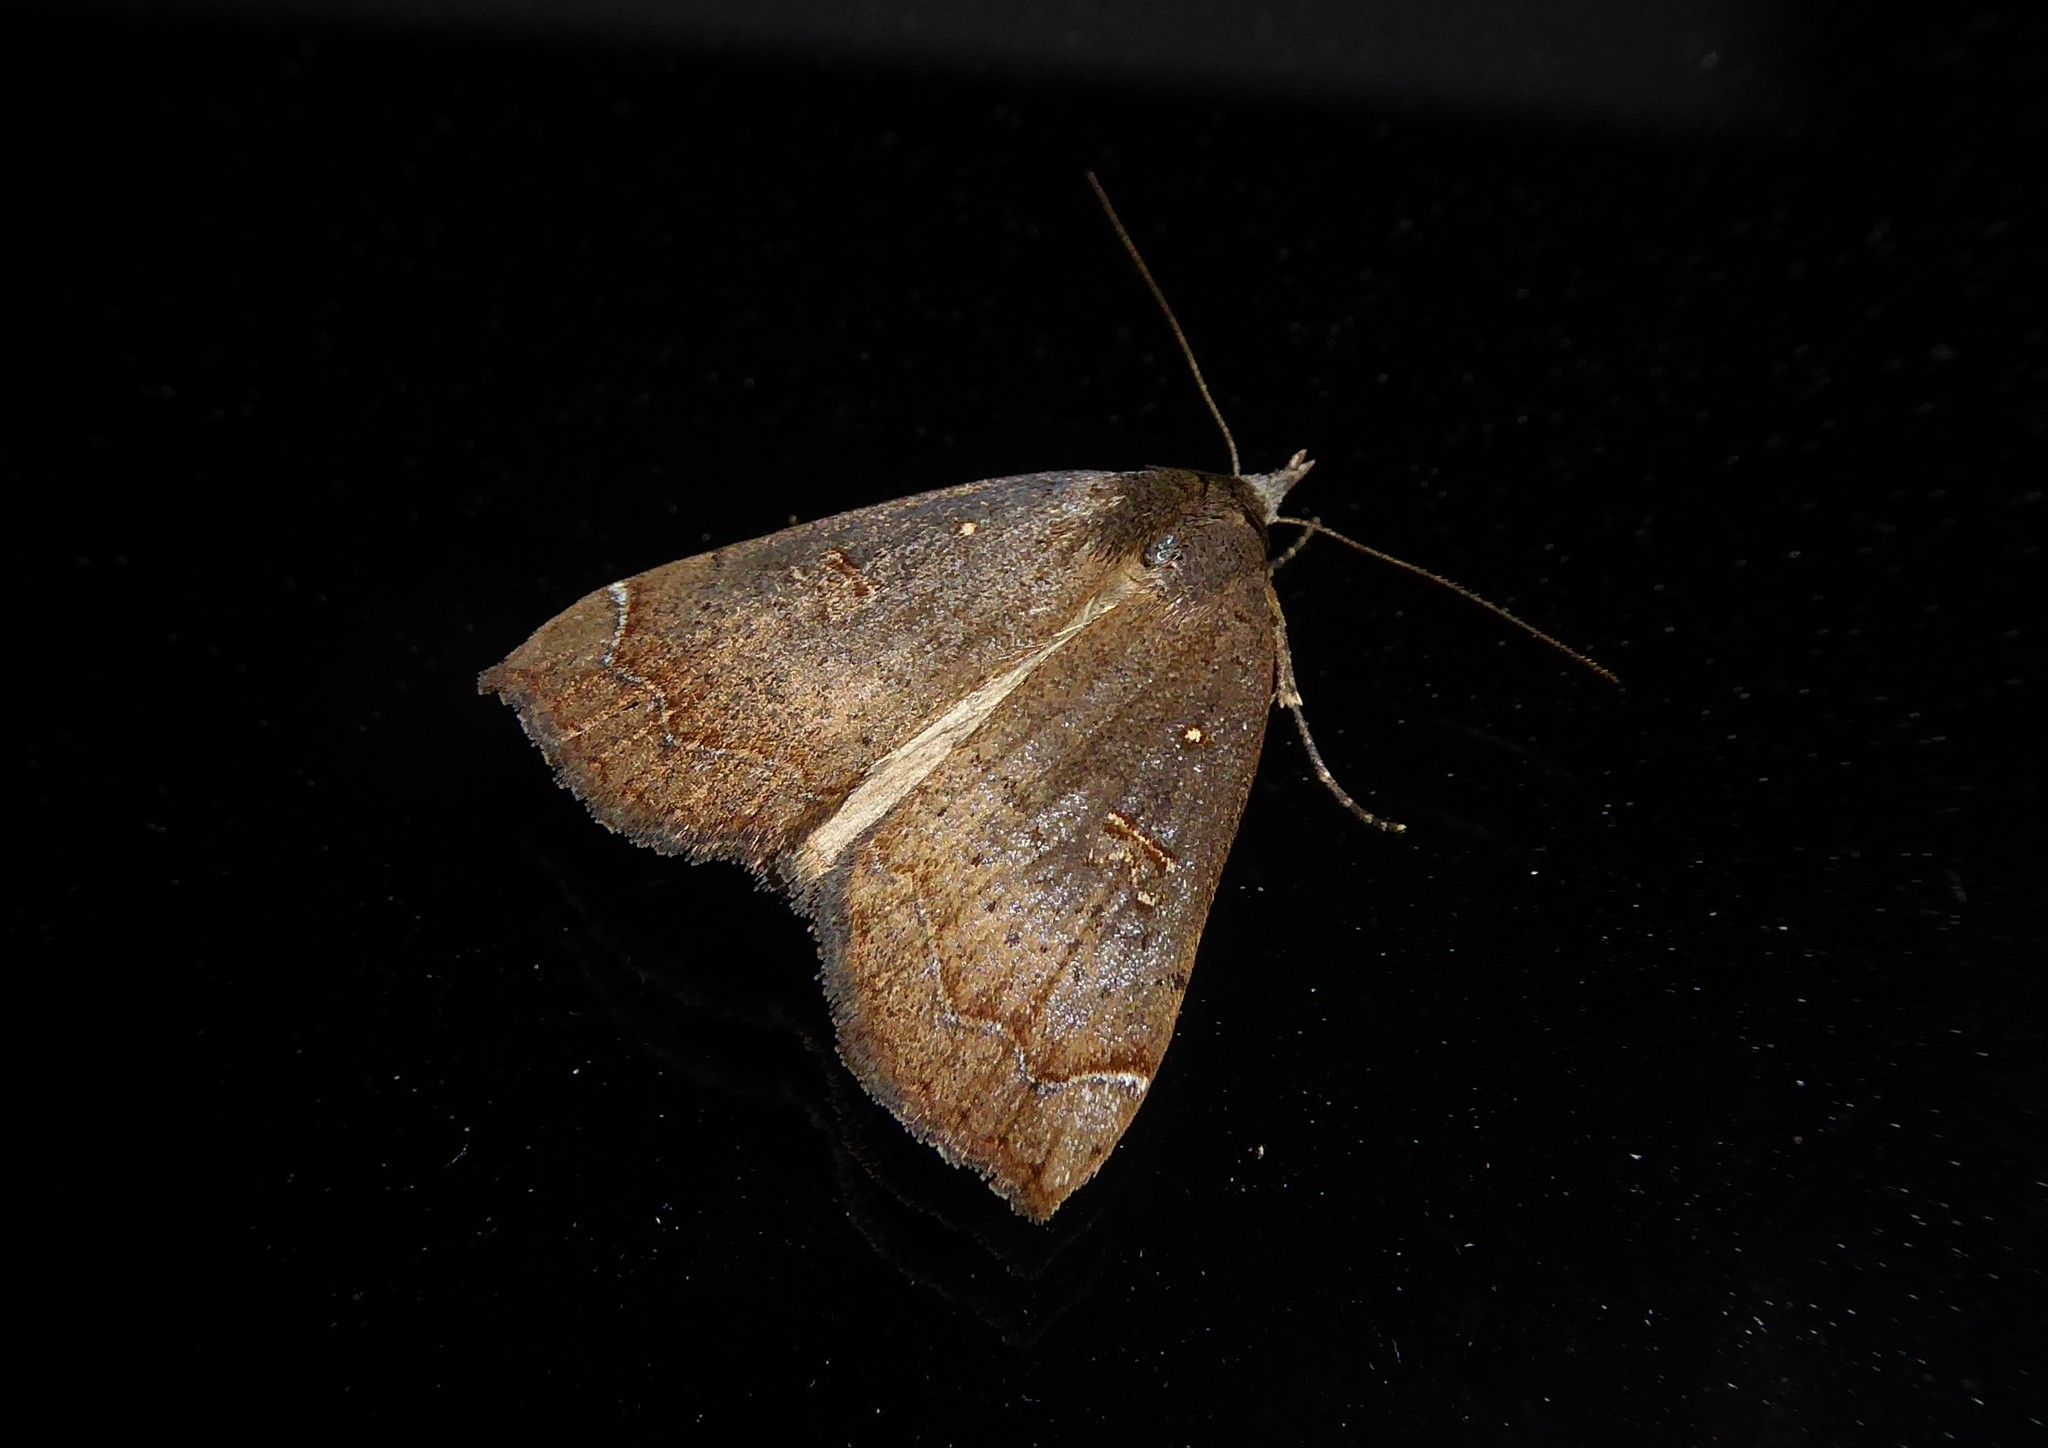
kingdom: Animalia
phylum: Arthropoda
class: Insecta
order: Lepidoptera
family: Erebidae
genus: Rhapsa
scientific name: Rhapsa scotosialis
